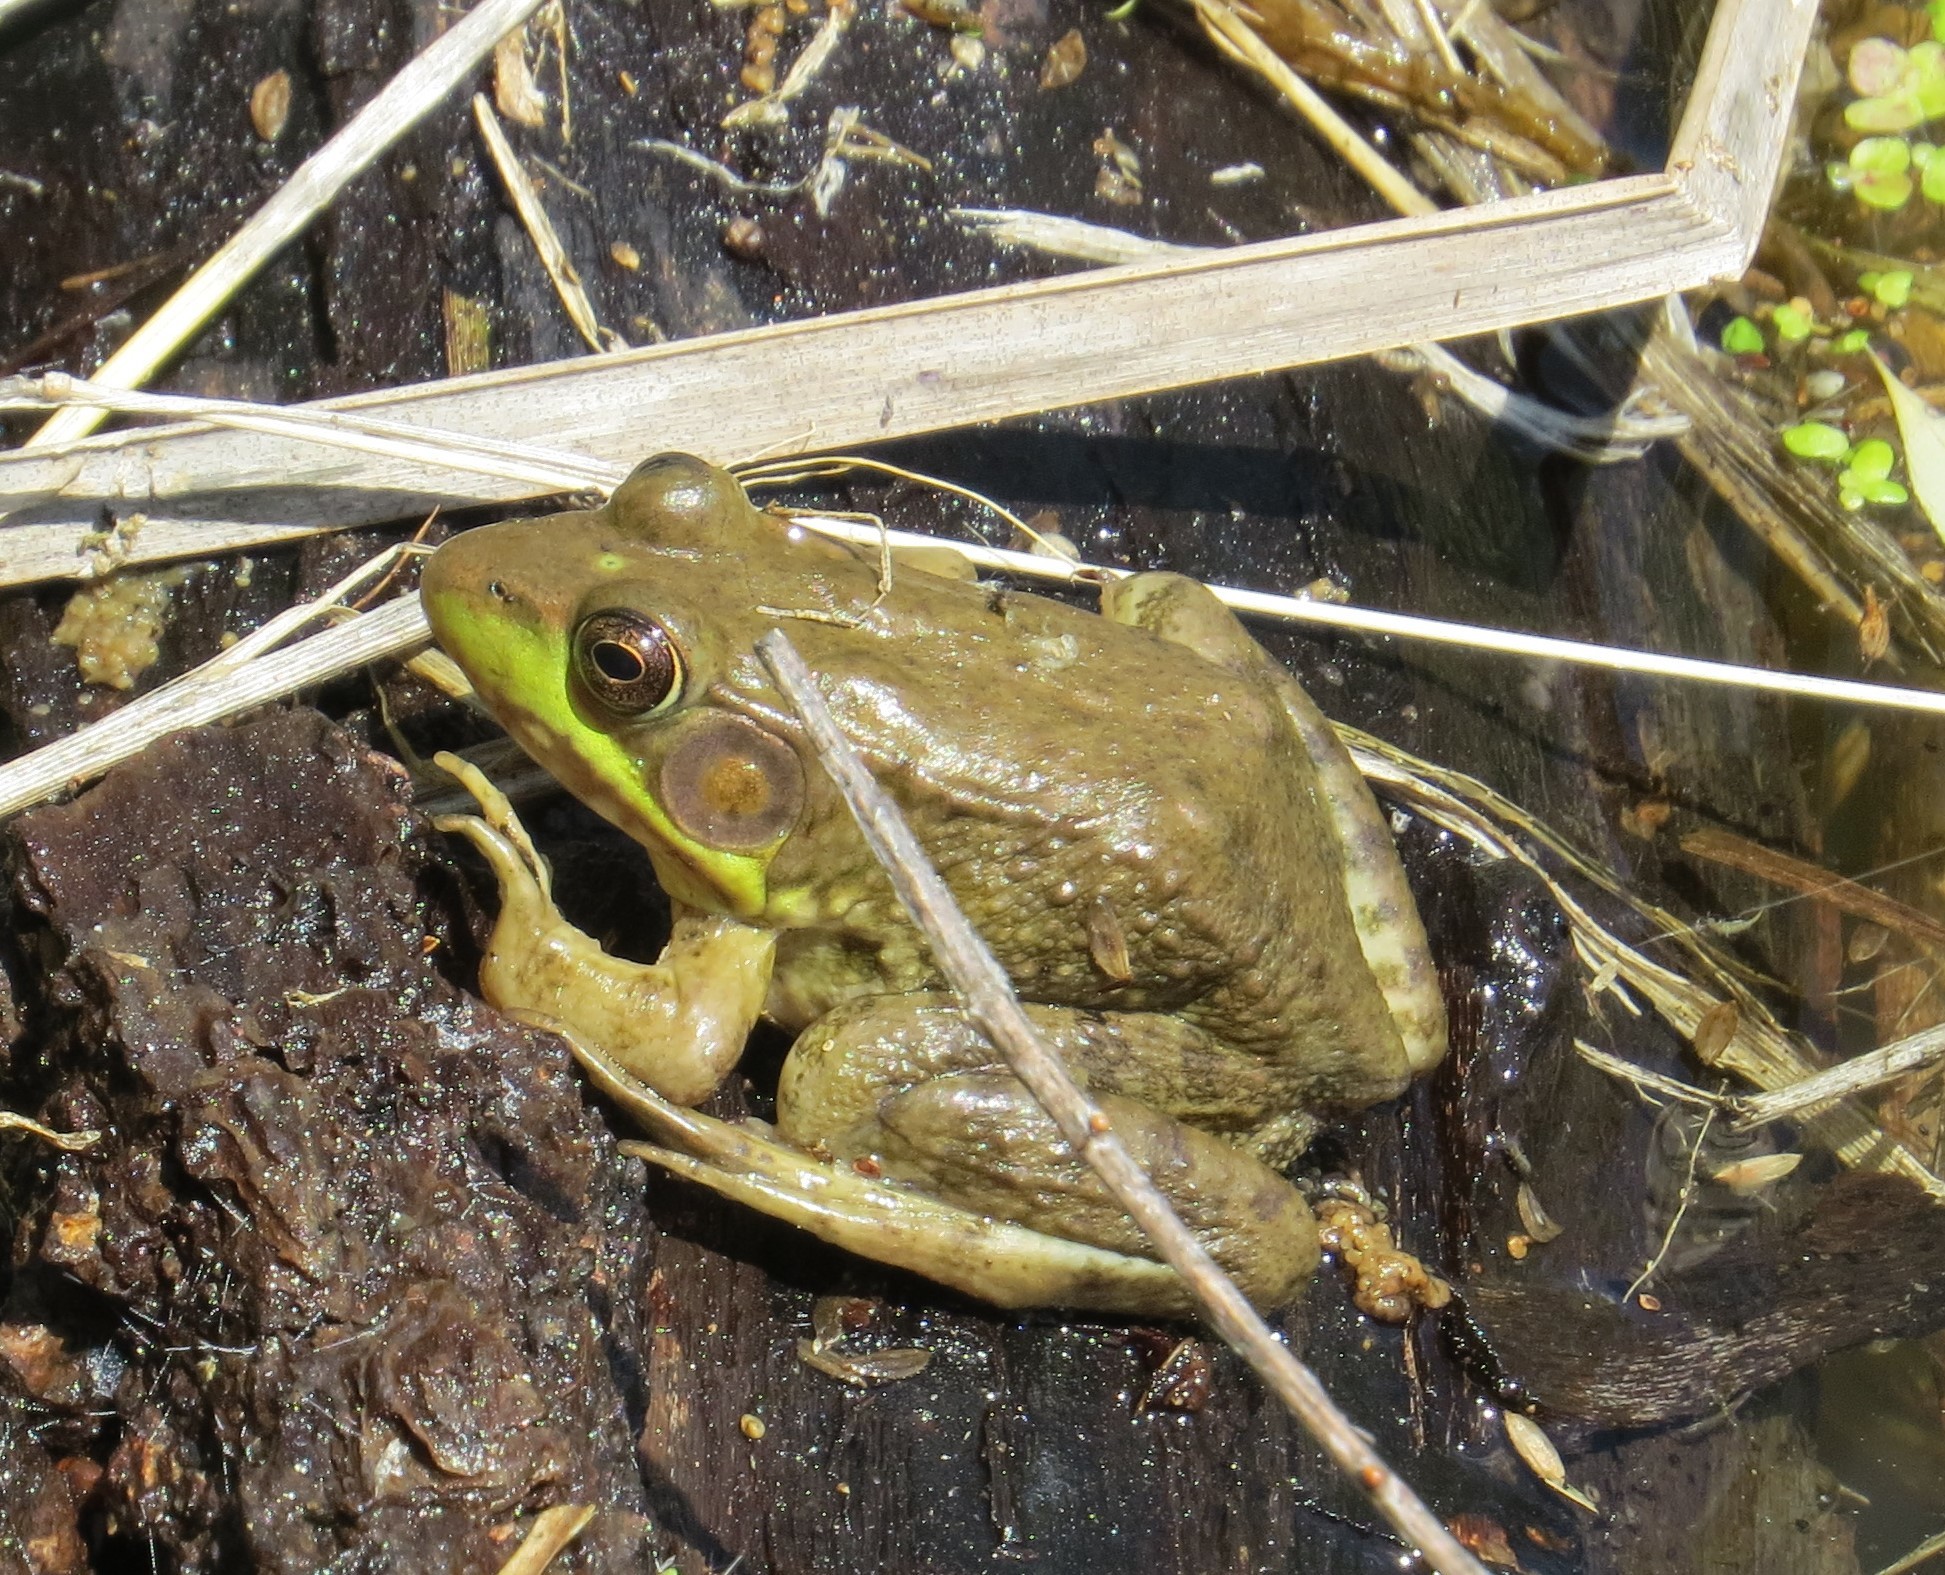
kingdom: Animalia
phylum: Chordata
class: Amphibia
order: Anura
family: Ranidae
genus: Lithobates
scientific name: Lithobates clamitans
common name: Green frog
